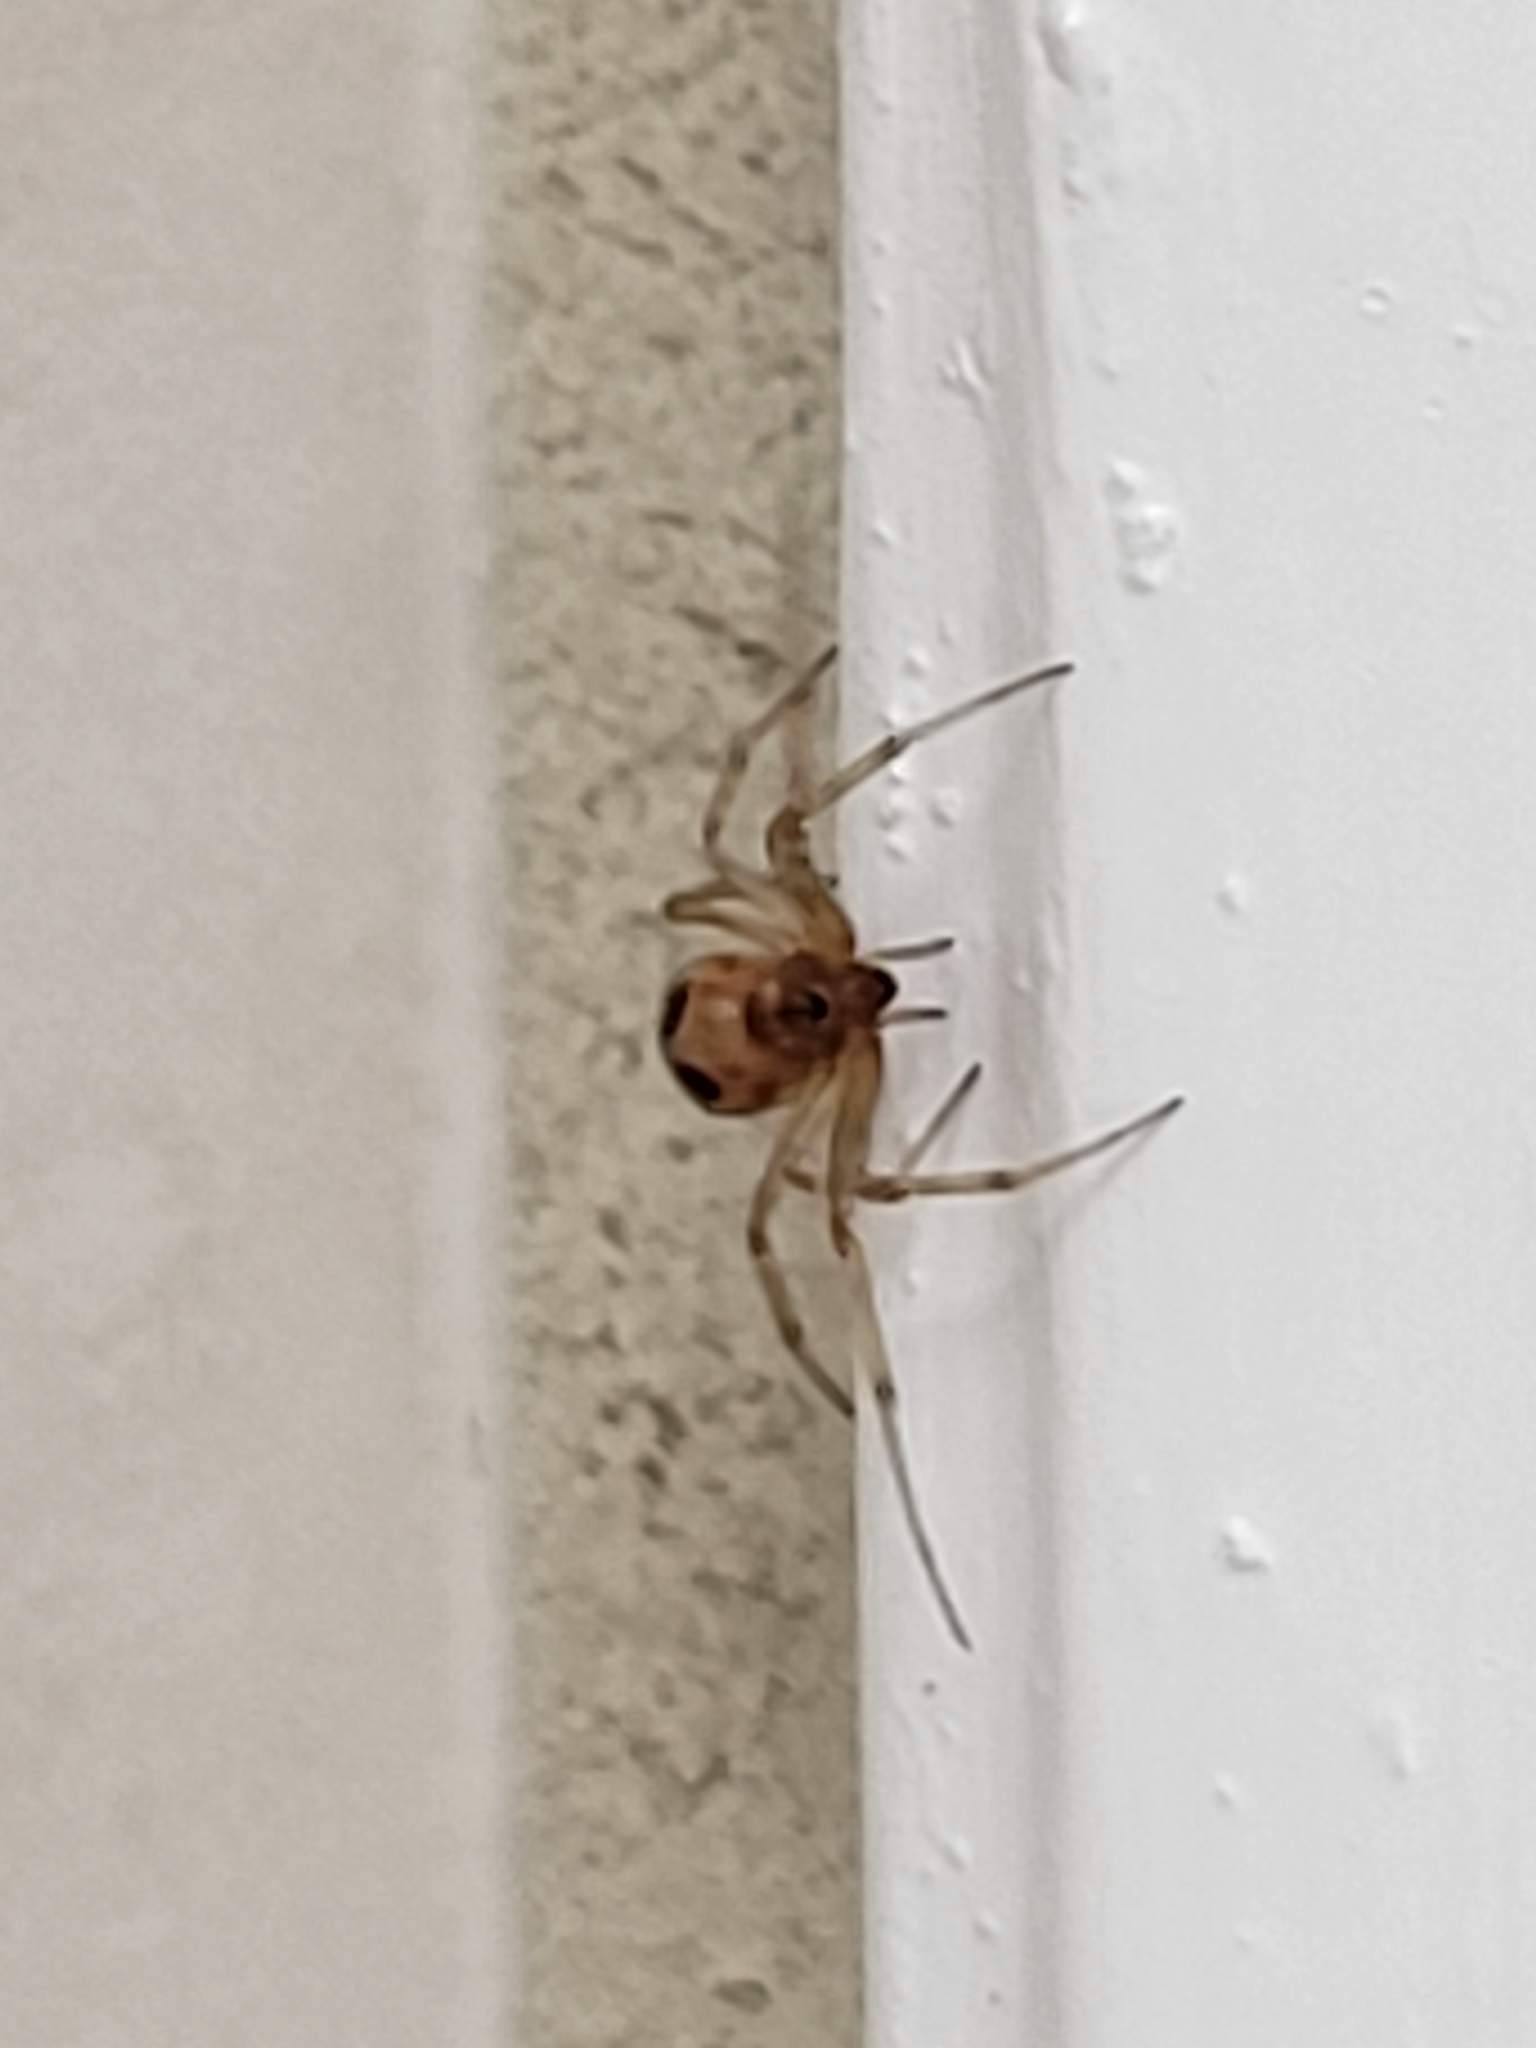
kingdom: Animalia
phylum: Arthropoda
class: Arachnida
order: Araneae
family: Theridiidae
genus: Steatoda
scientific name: Steatoda triangulosa
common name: Triangulate bud spider
